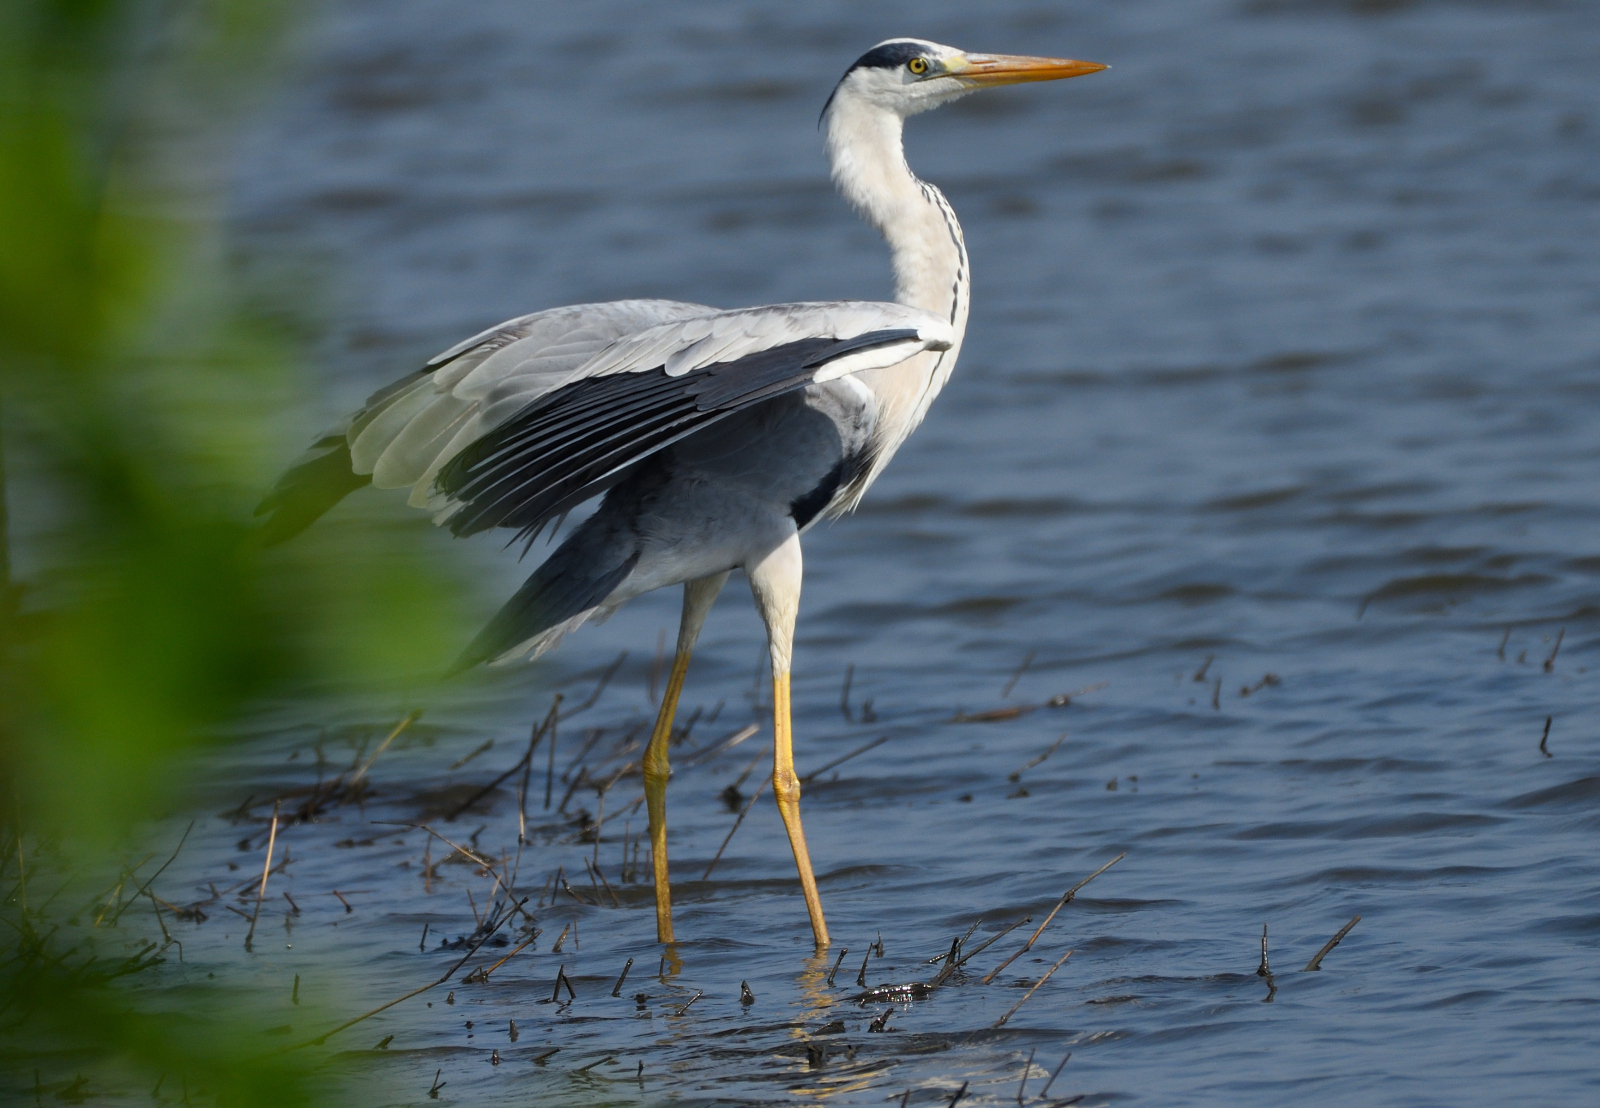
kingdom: Animalia
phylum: Chordata
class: Aves
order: Pelecaniformes
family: Ardeidae
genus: Ardea
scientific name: Ardea cinerea
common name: Grey heron
